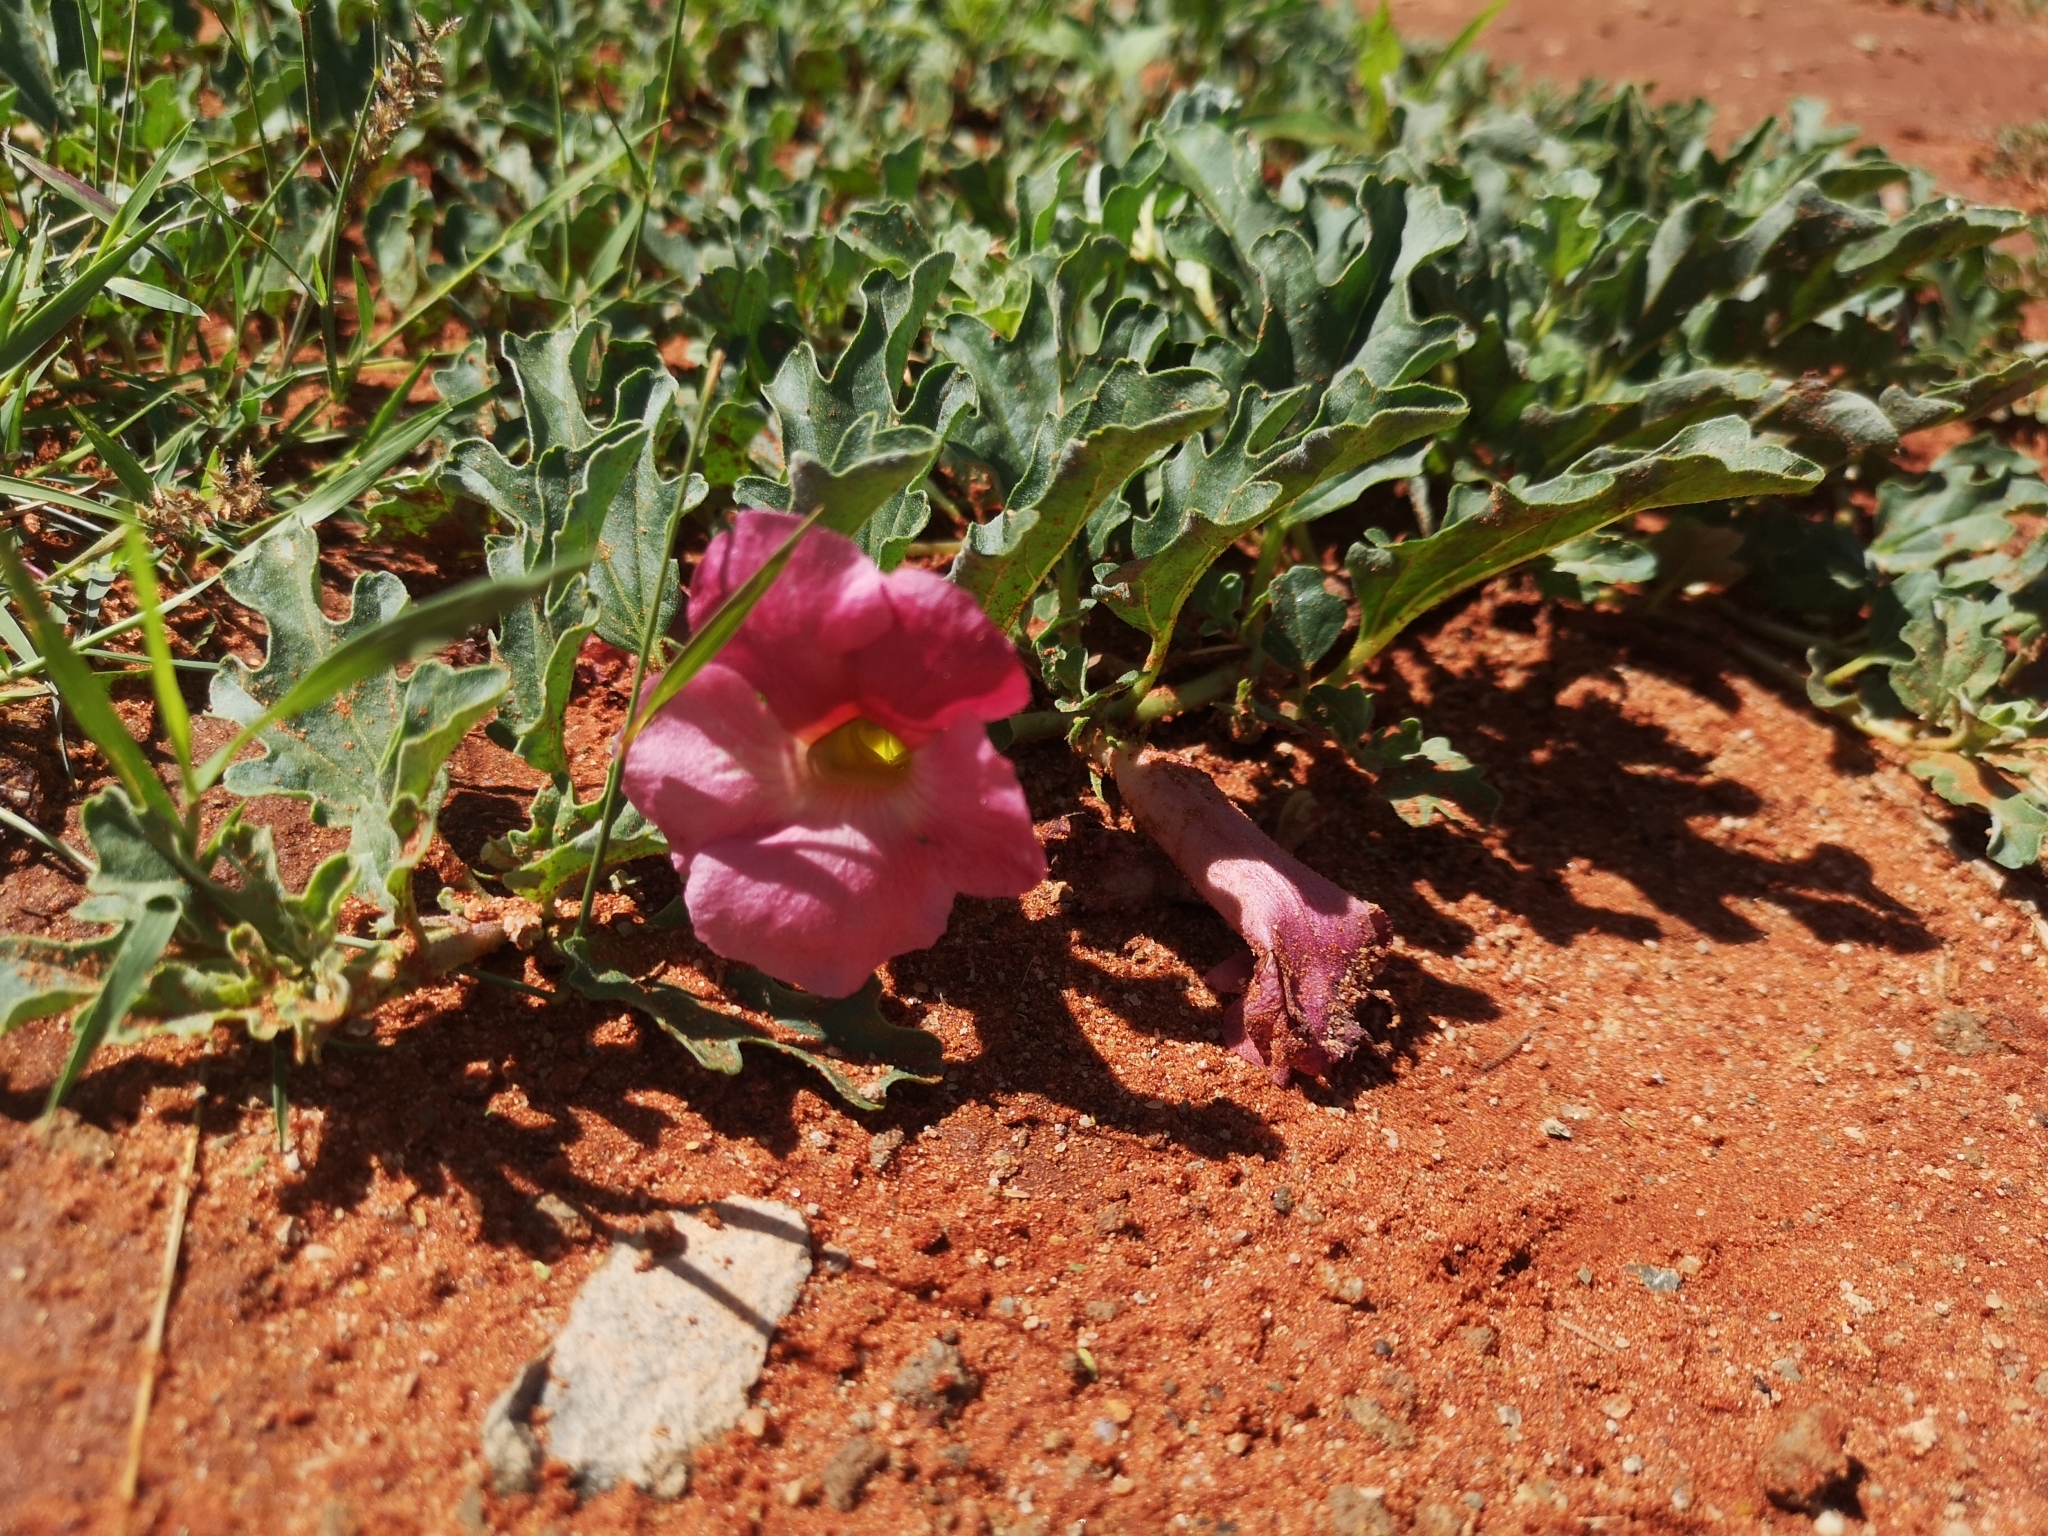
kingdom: Plantae
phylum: Tracheophyta
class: Magnoliopsida
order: Lamiales
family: Pedaliaceae
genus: Harpagophytum
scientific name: Harpagophytum procumbens
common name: Grappleplant
